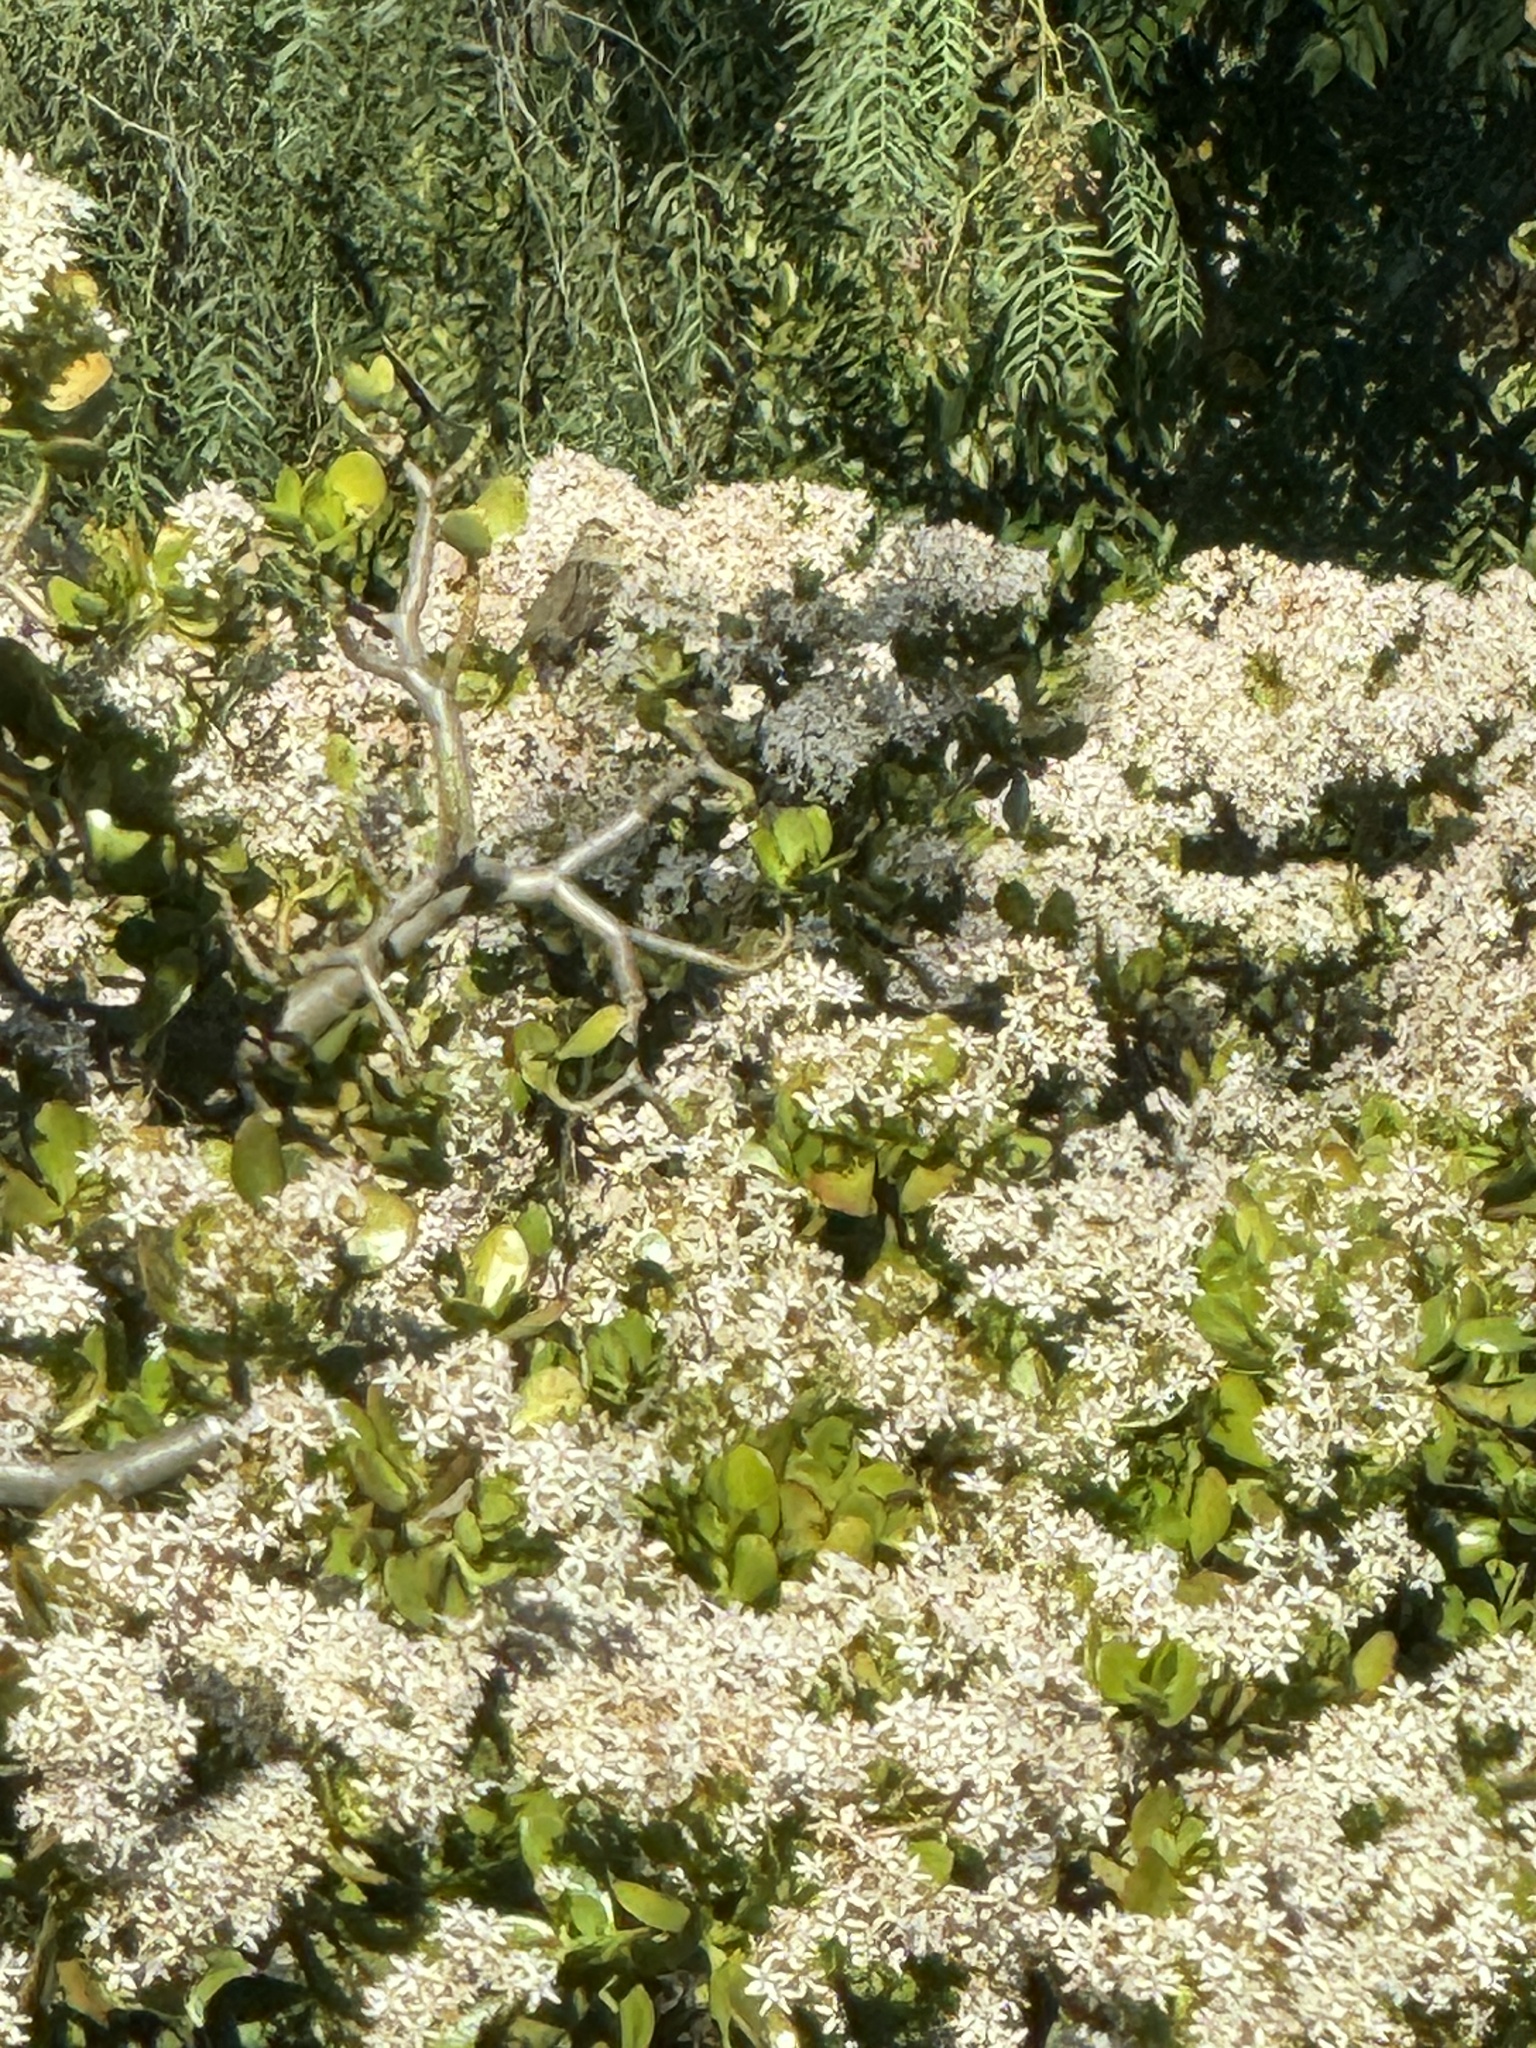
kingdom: Animalia
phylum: Chordata
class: Aves
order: Passeriformes
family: Passerellidae
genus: Zonotrichia
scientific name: Zonotrichia leucophrys
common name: White-crowned sparrow
